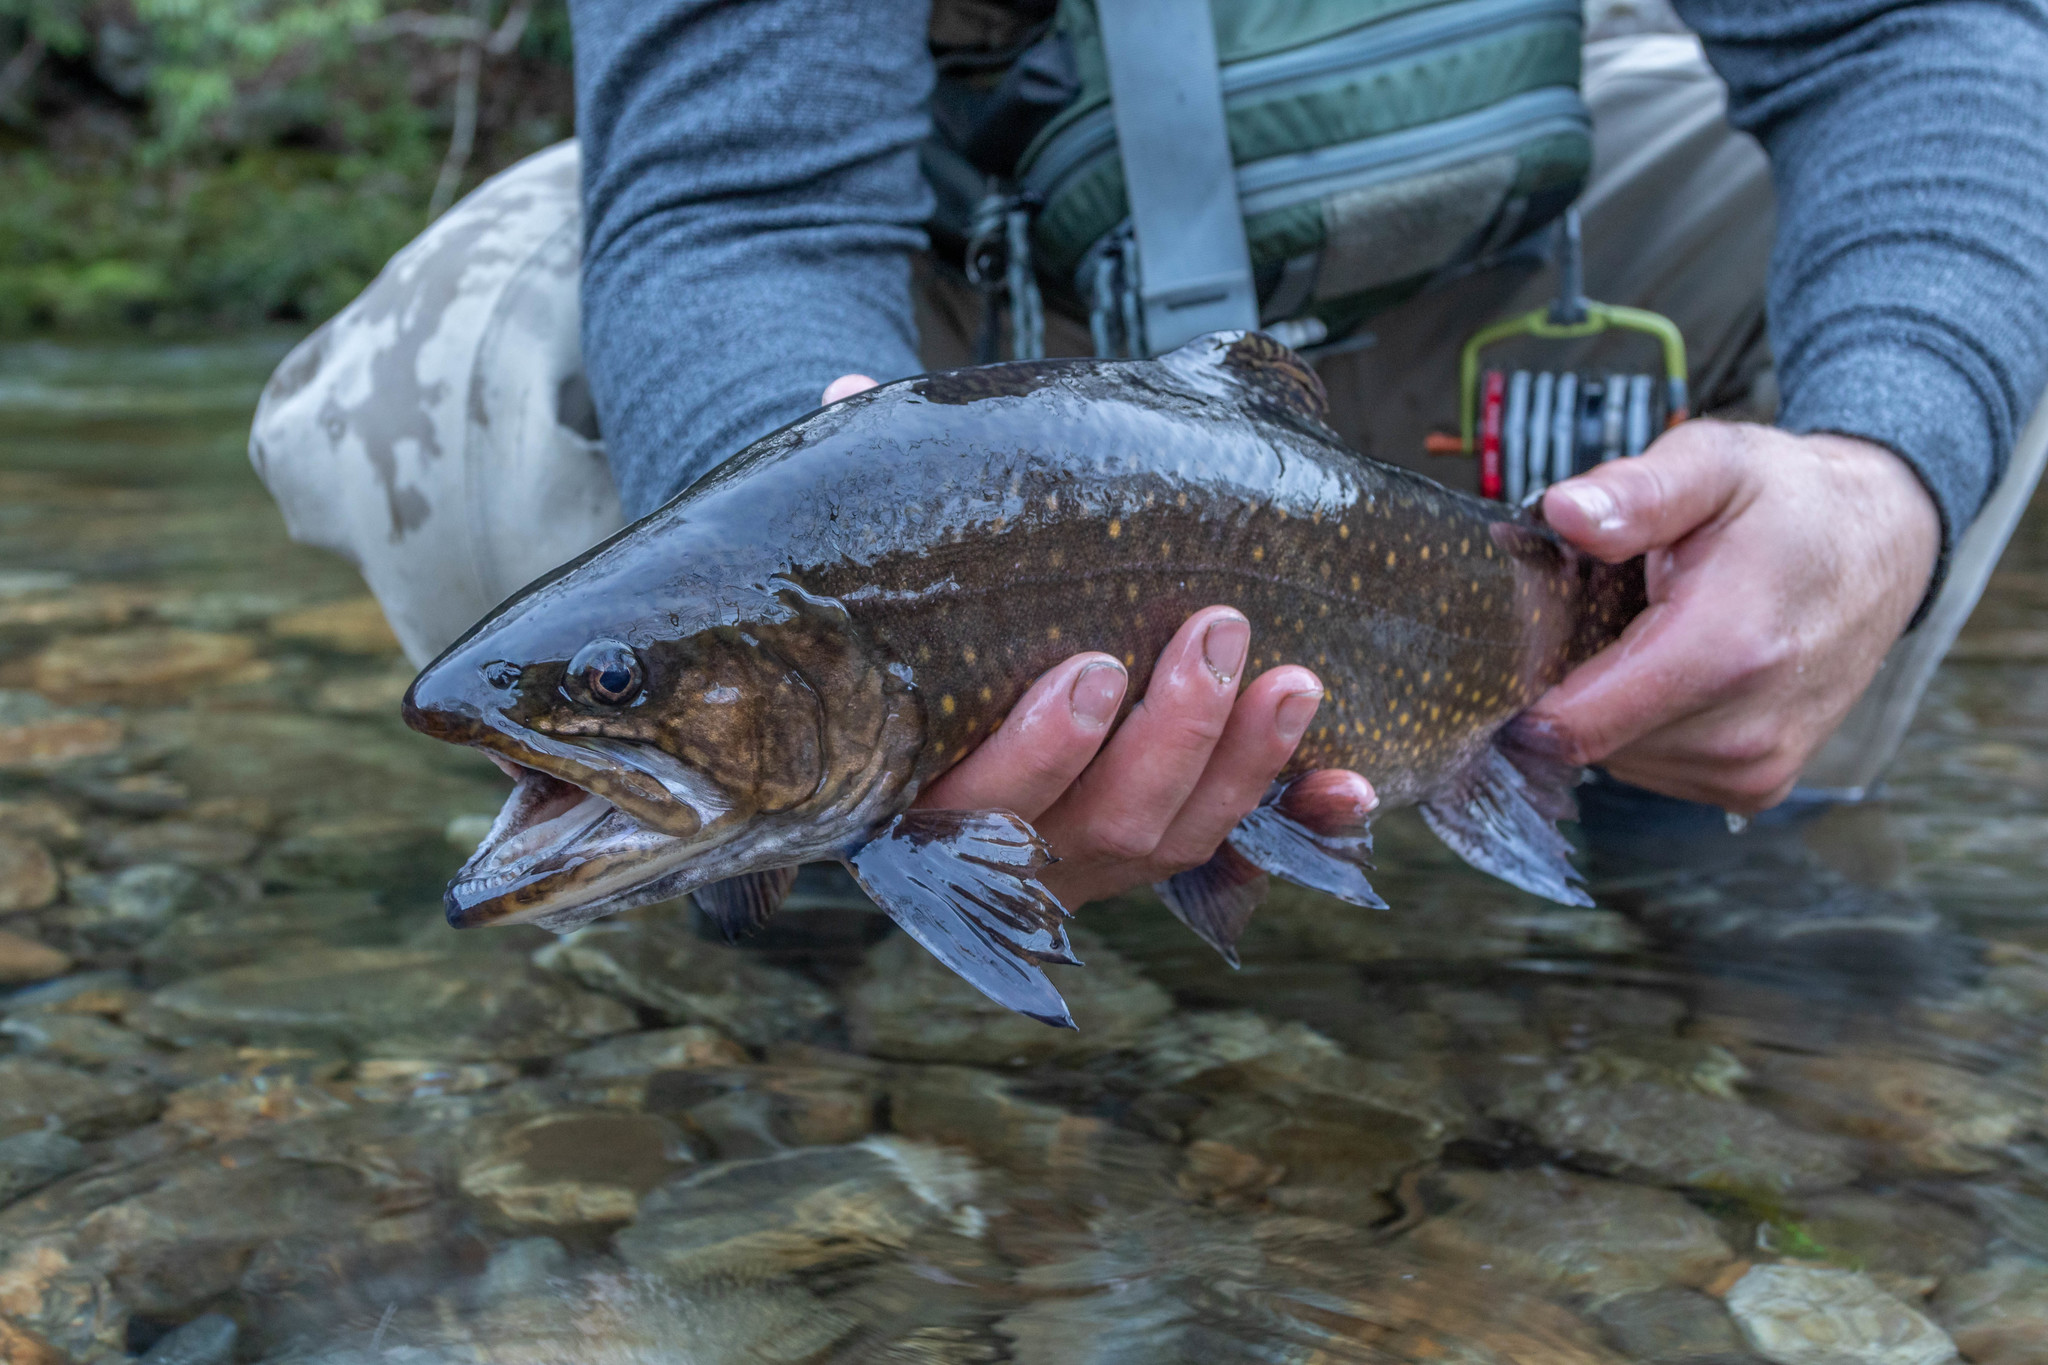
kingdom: Animalia
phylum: Chordata
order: Salmoniformes
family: Salmonidae
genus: Salvelinus
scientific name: Salvelinus fontinalis
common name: Brook trout
